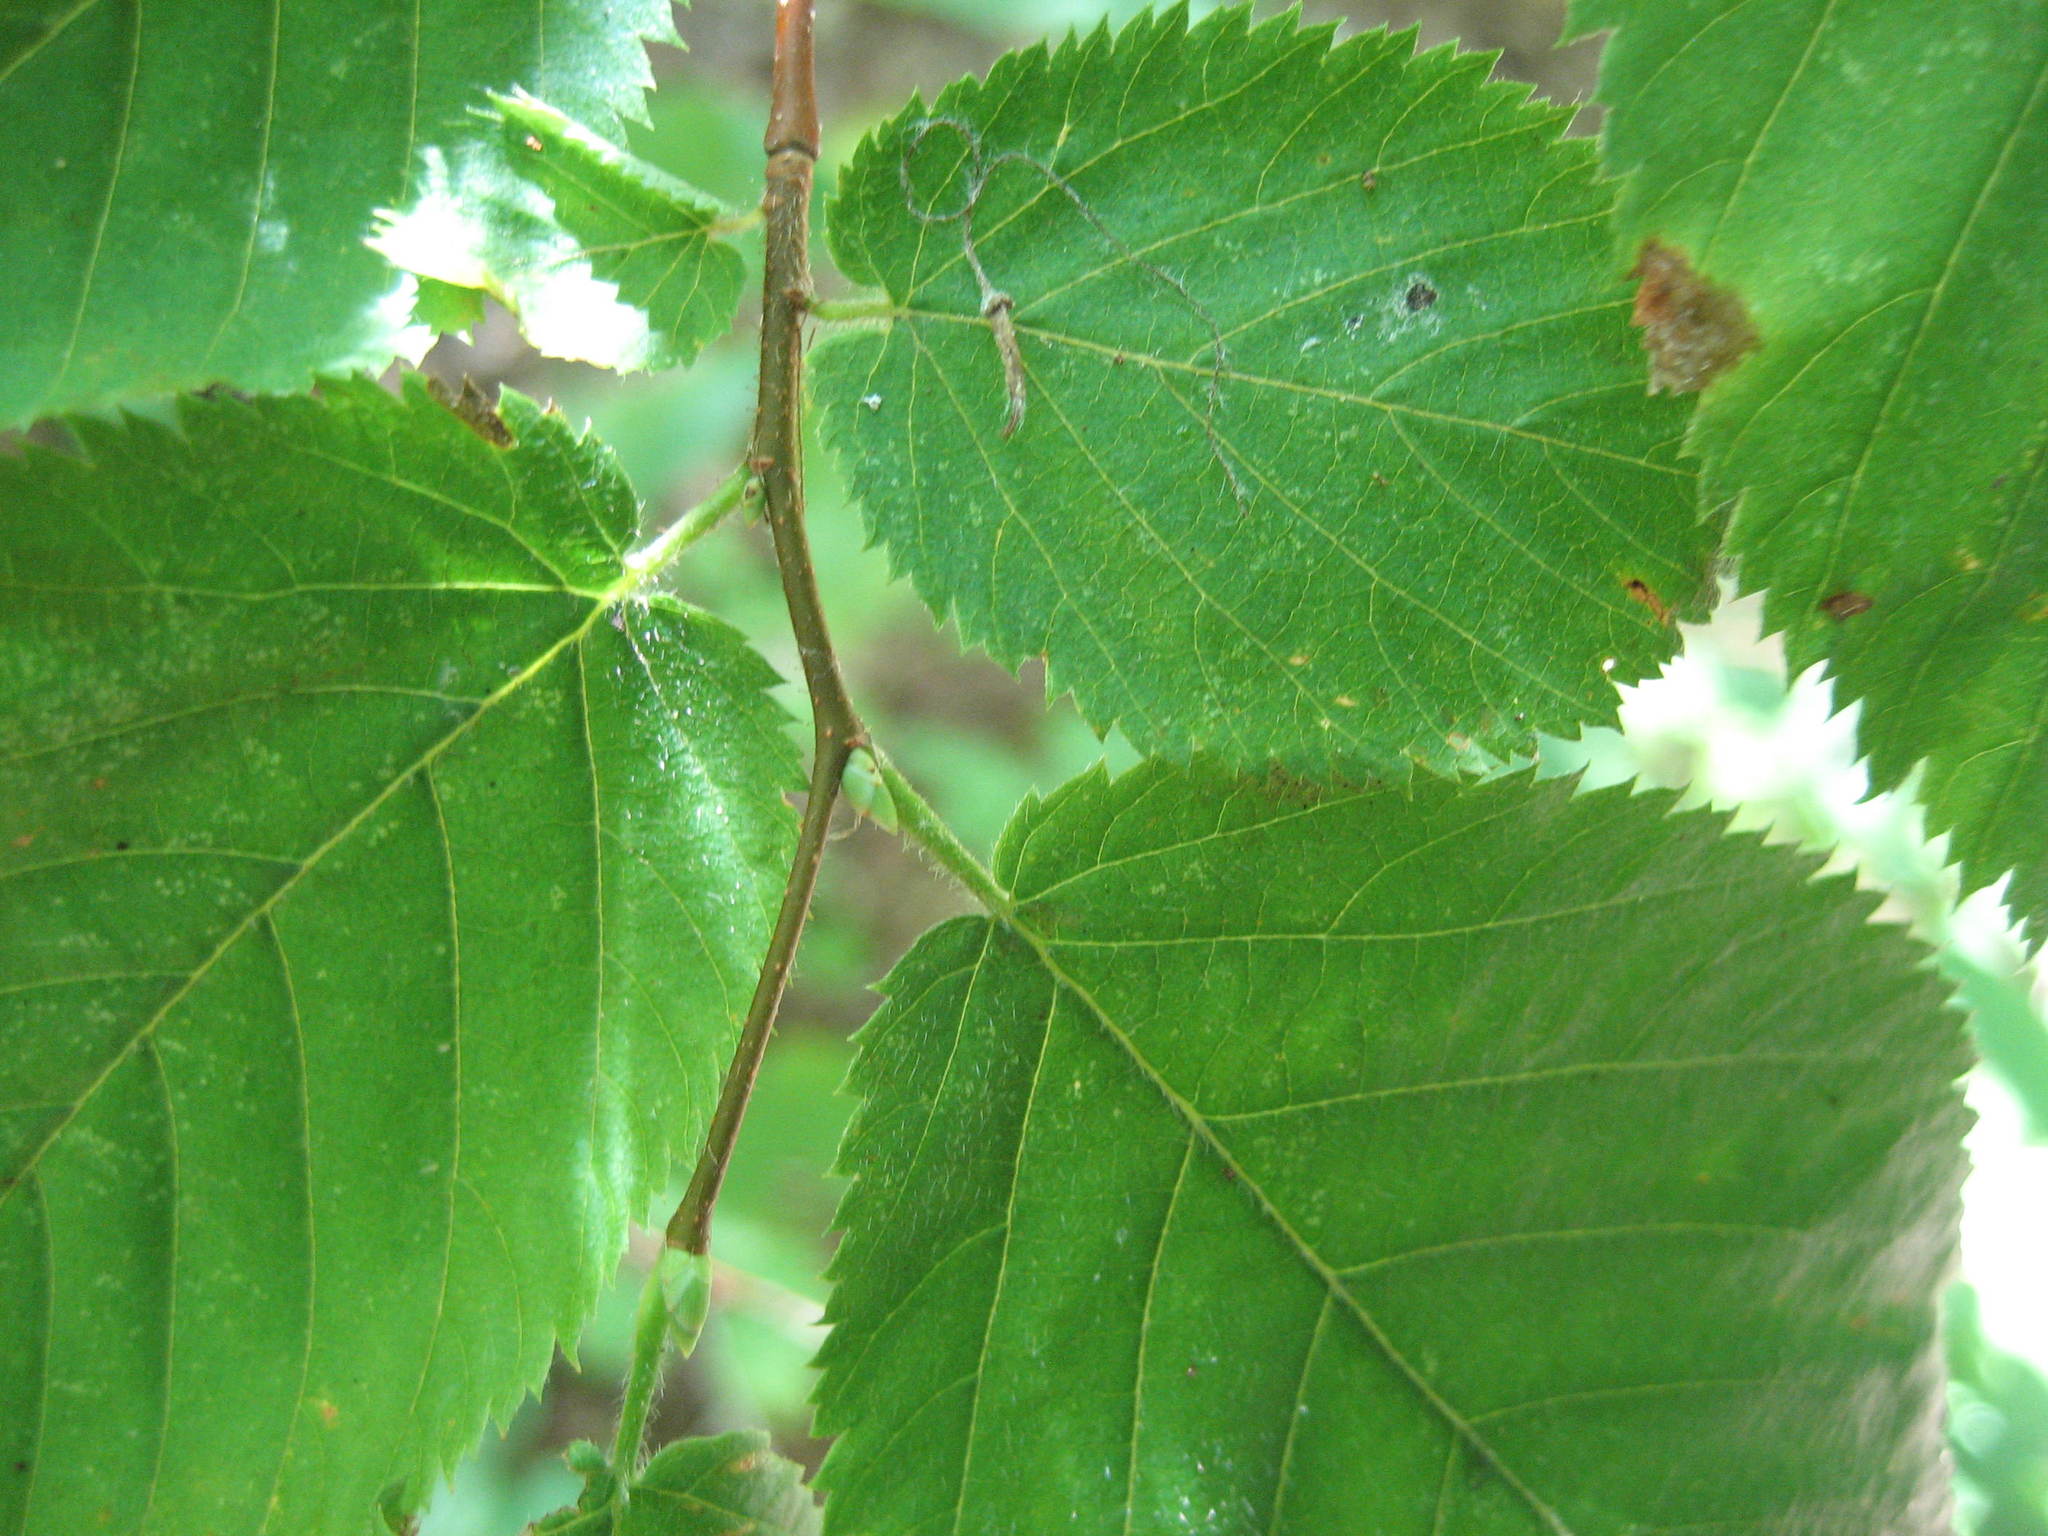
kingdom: Plantae
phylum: Tracheophyta
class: Magnoliopsida
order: Fagales
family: Betulaceae
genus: Ostrya
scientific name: Ostrya virginiana
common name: Ironwood
